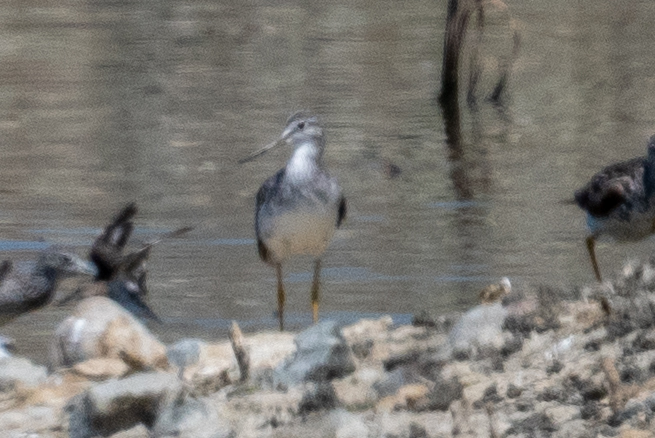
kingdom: Animalia
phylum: Chordata
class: Aves
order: Charadriiformes
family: Scolopacidae
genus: Tringa
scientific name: Tringa melanoleuca
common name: Greater yellowlegs
